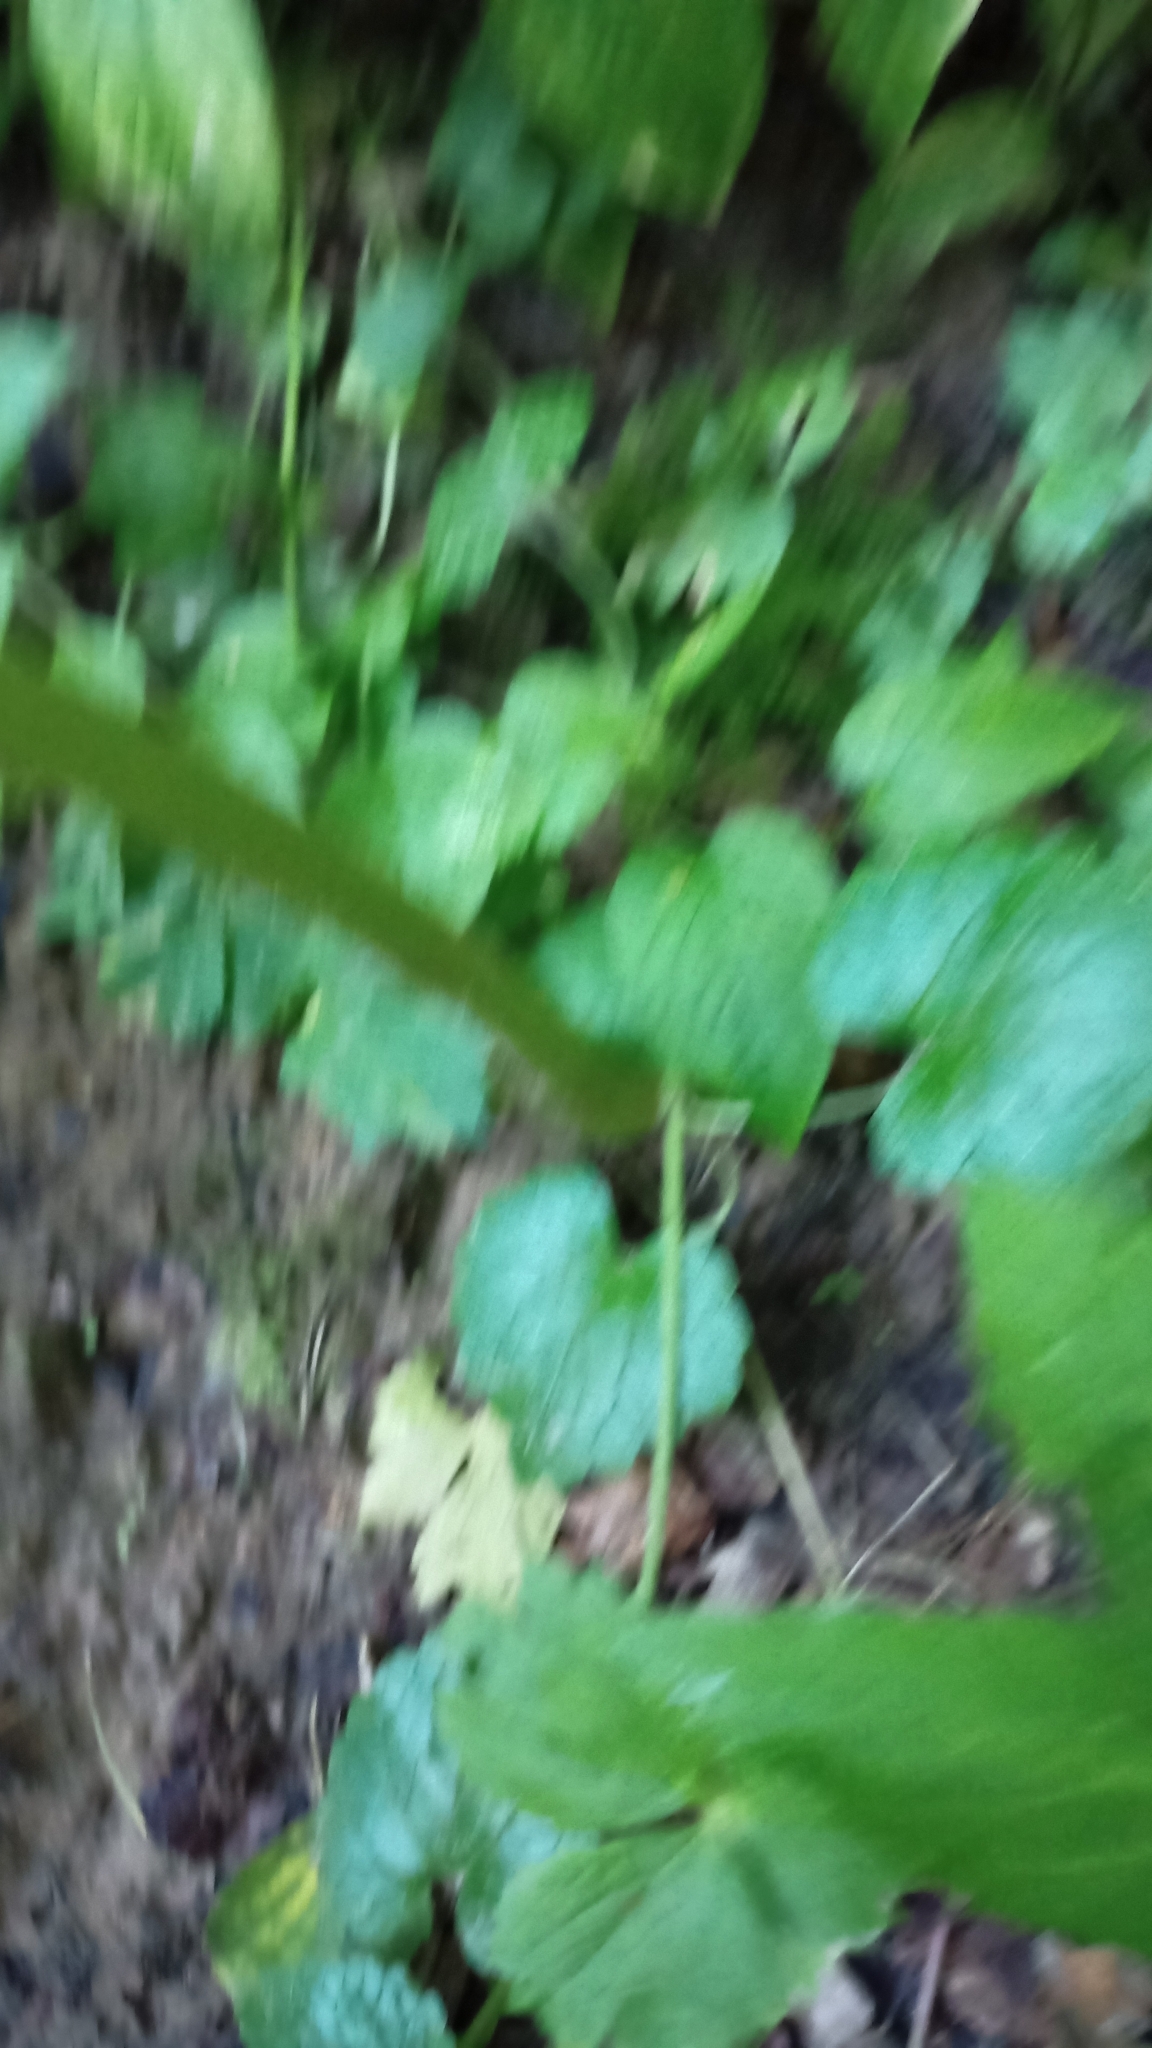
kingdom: Plantae
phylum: Tracheophyta
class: Magnoliopsida
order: Ericales
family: Balsaminaceae
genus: Impatiens
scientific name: Impatiens glandulifera
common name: Himalayan balsam
